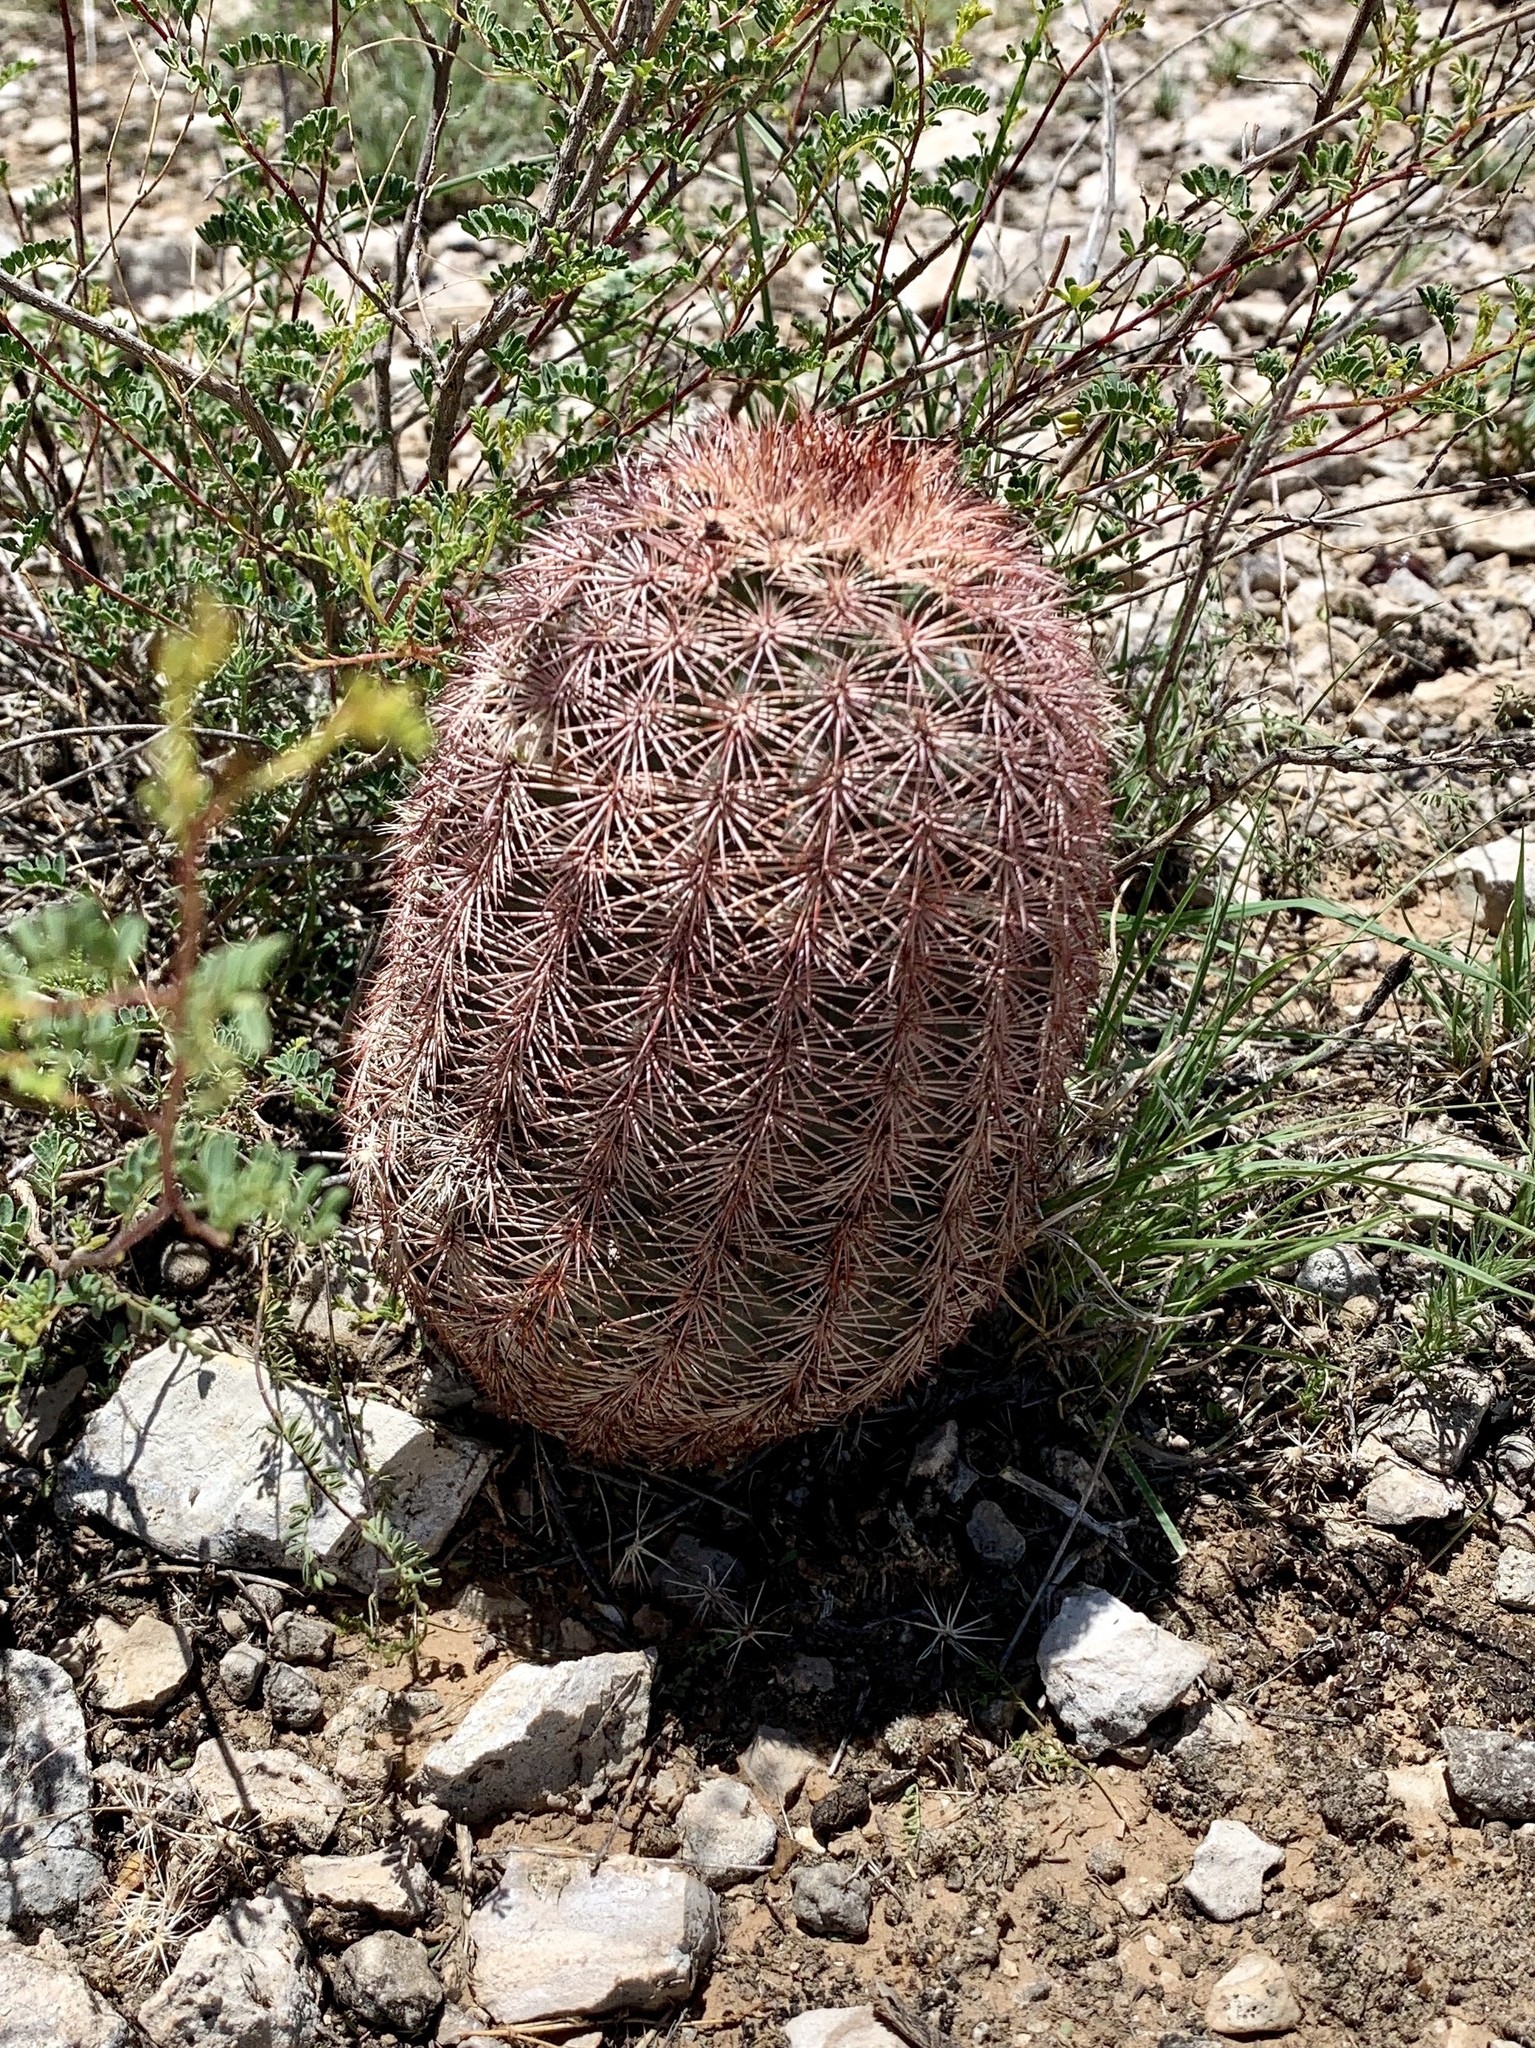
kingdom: Plantae
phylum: Tracheophyta
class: Magnoliopsida
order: Caryophyllales
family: Cactaceae
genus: Echinocereus
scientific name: Echinocereus dasyacanthus
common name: Spiny hedgehog cactus
